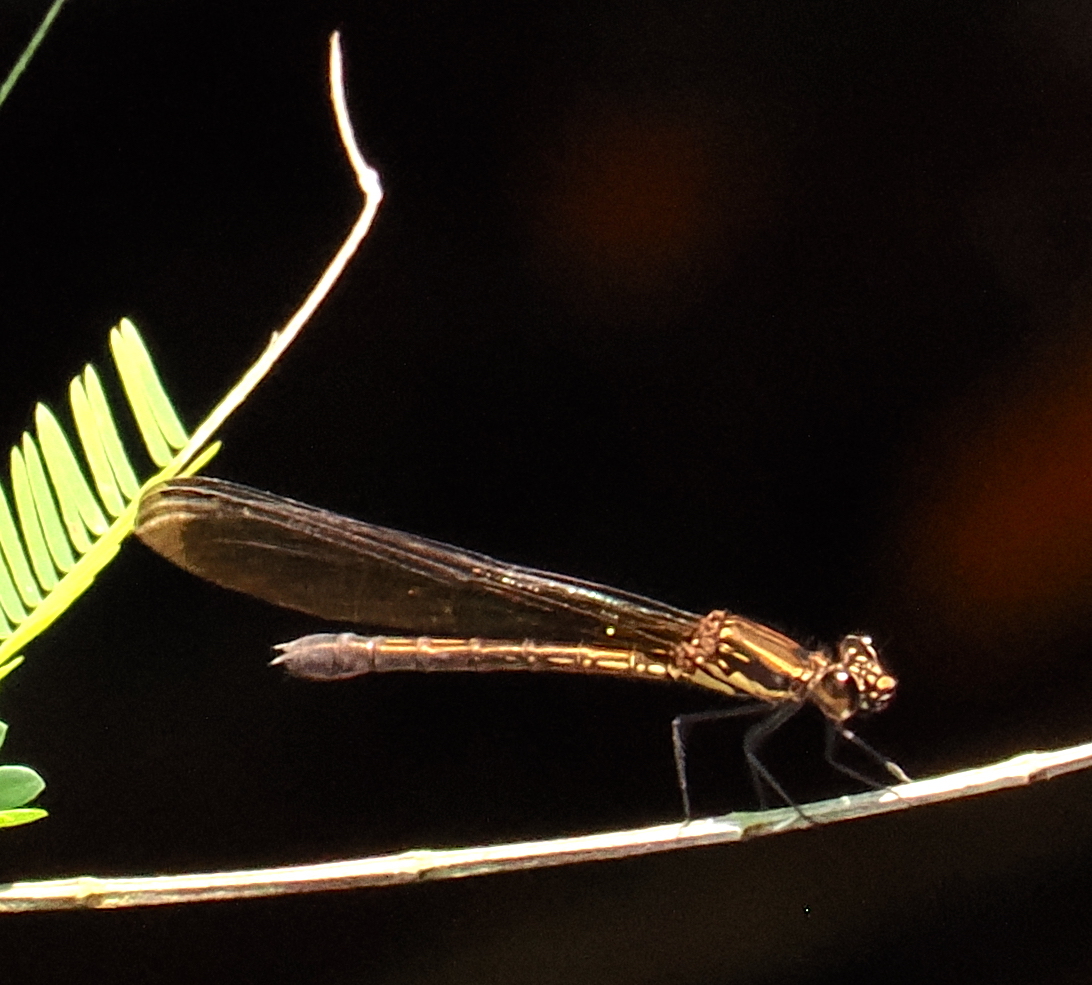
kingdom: Animalia
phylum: Arthropoda
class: Insecta
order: Odonata
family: Chlorocyphidae
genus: Heliocypha
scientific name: Heliocypha fenestrata
